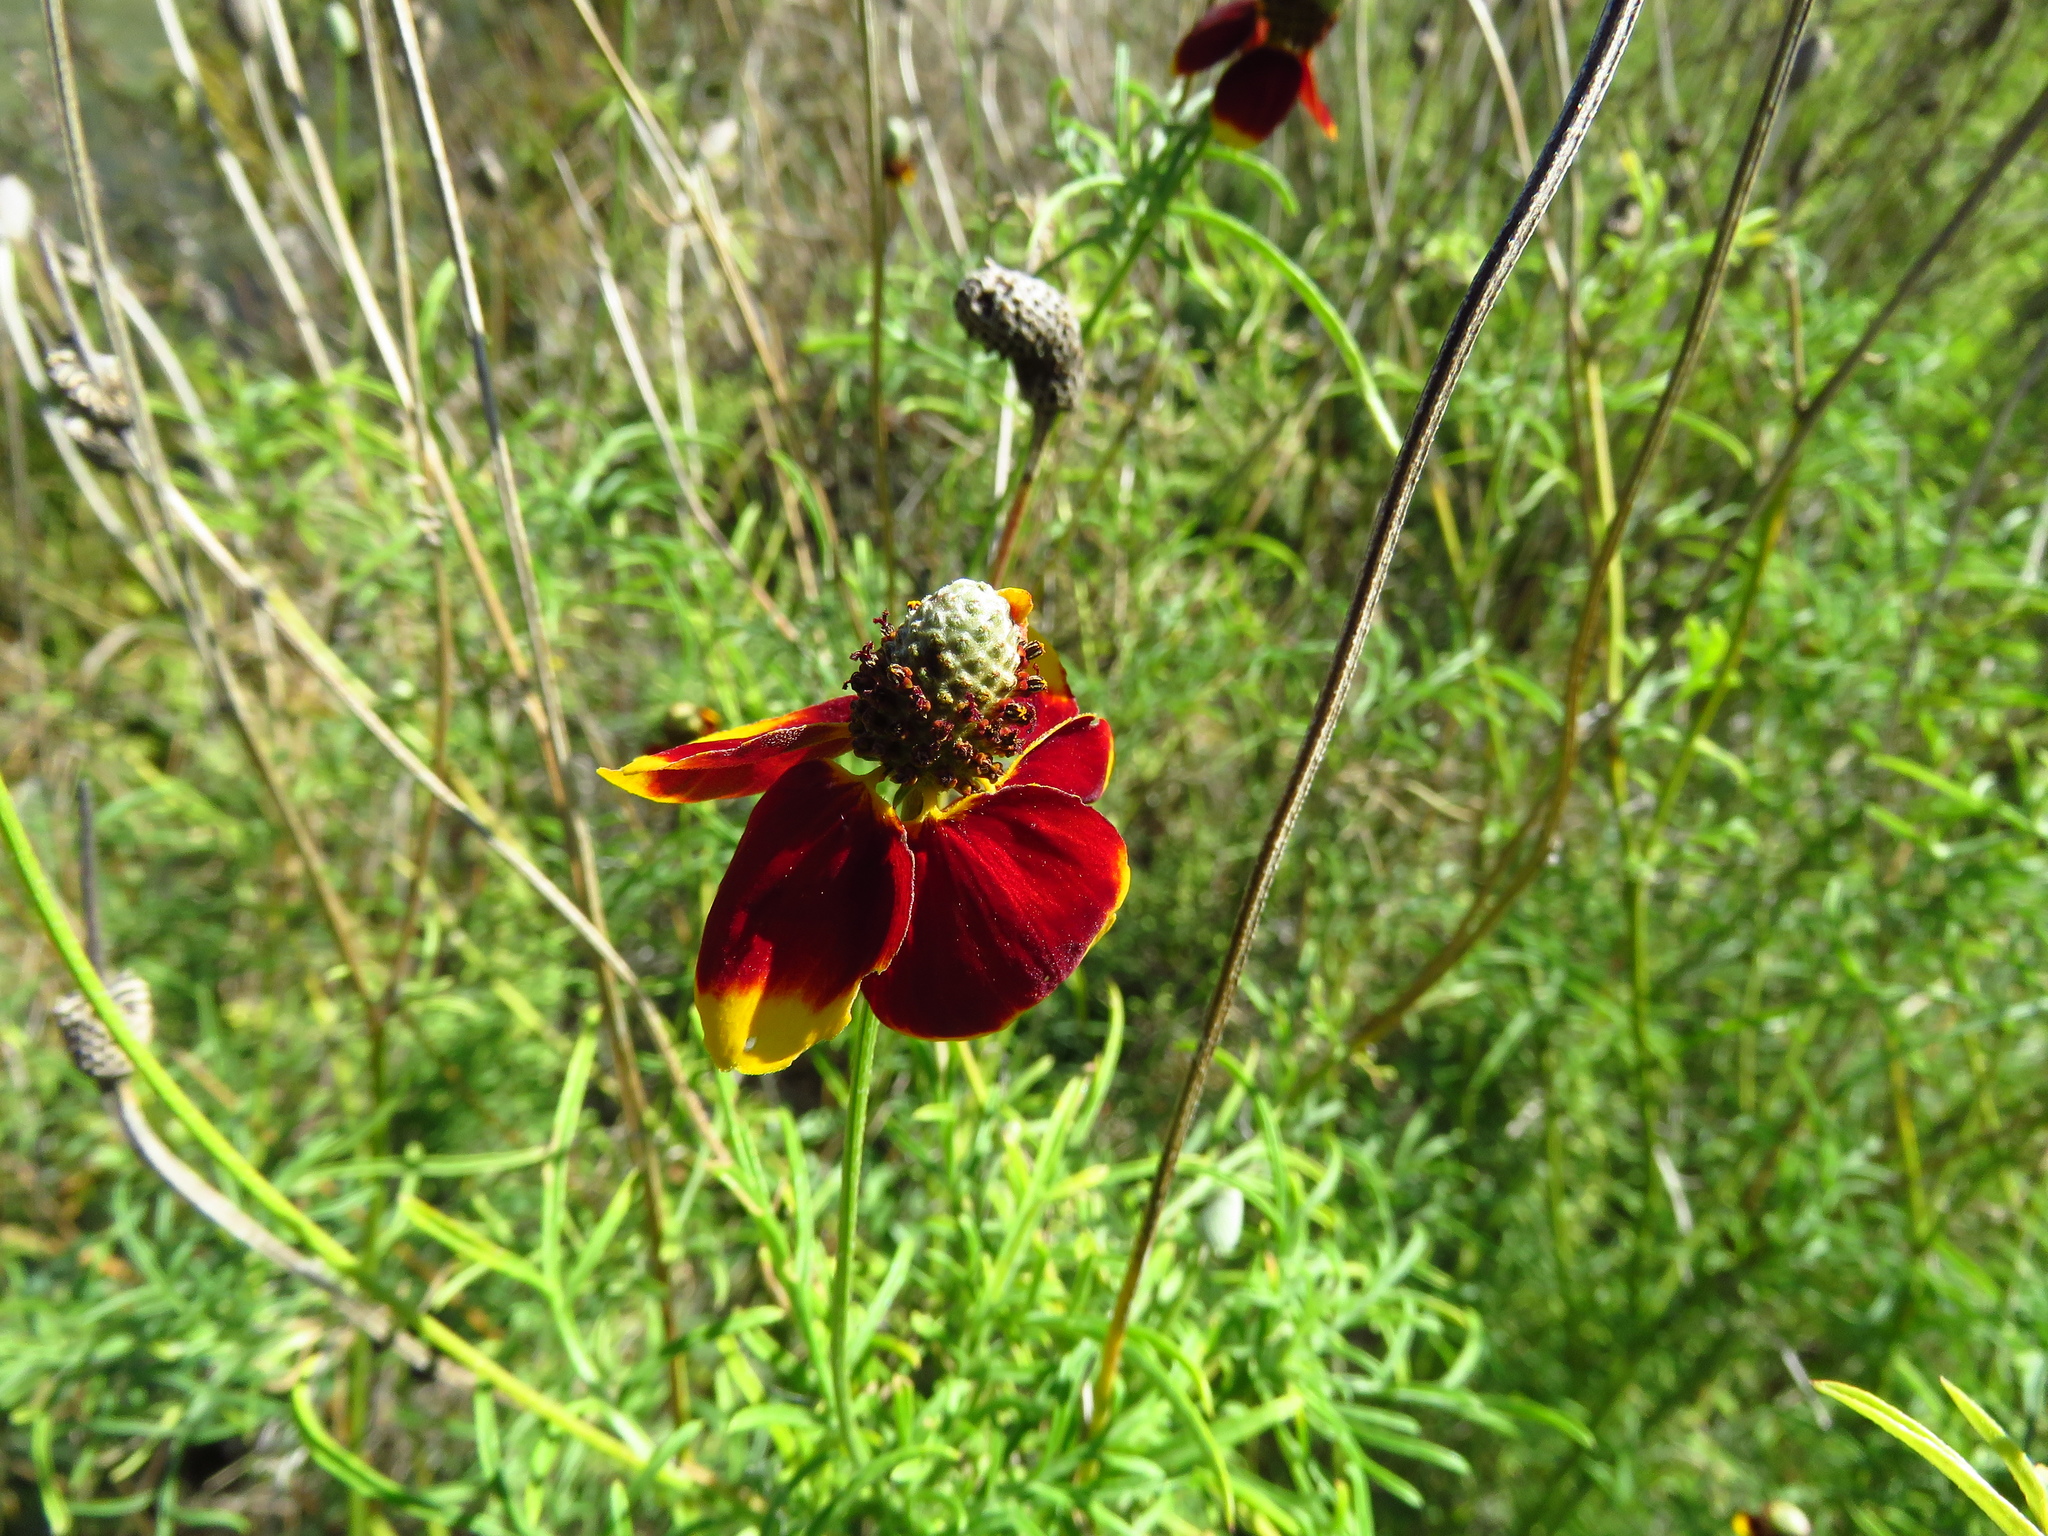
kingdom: Plantae
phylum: Tracheophyta
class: Magnoliopsida
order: Asterales
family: Asteraceae
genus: Ratibida
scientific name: Ratibida columnifera
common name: Prairie coneflower
